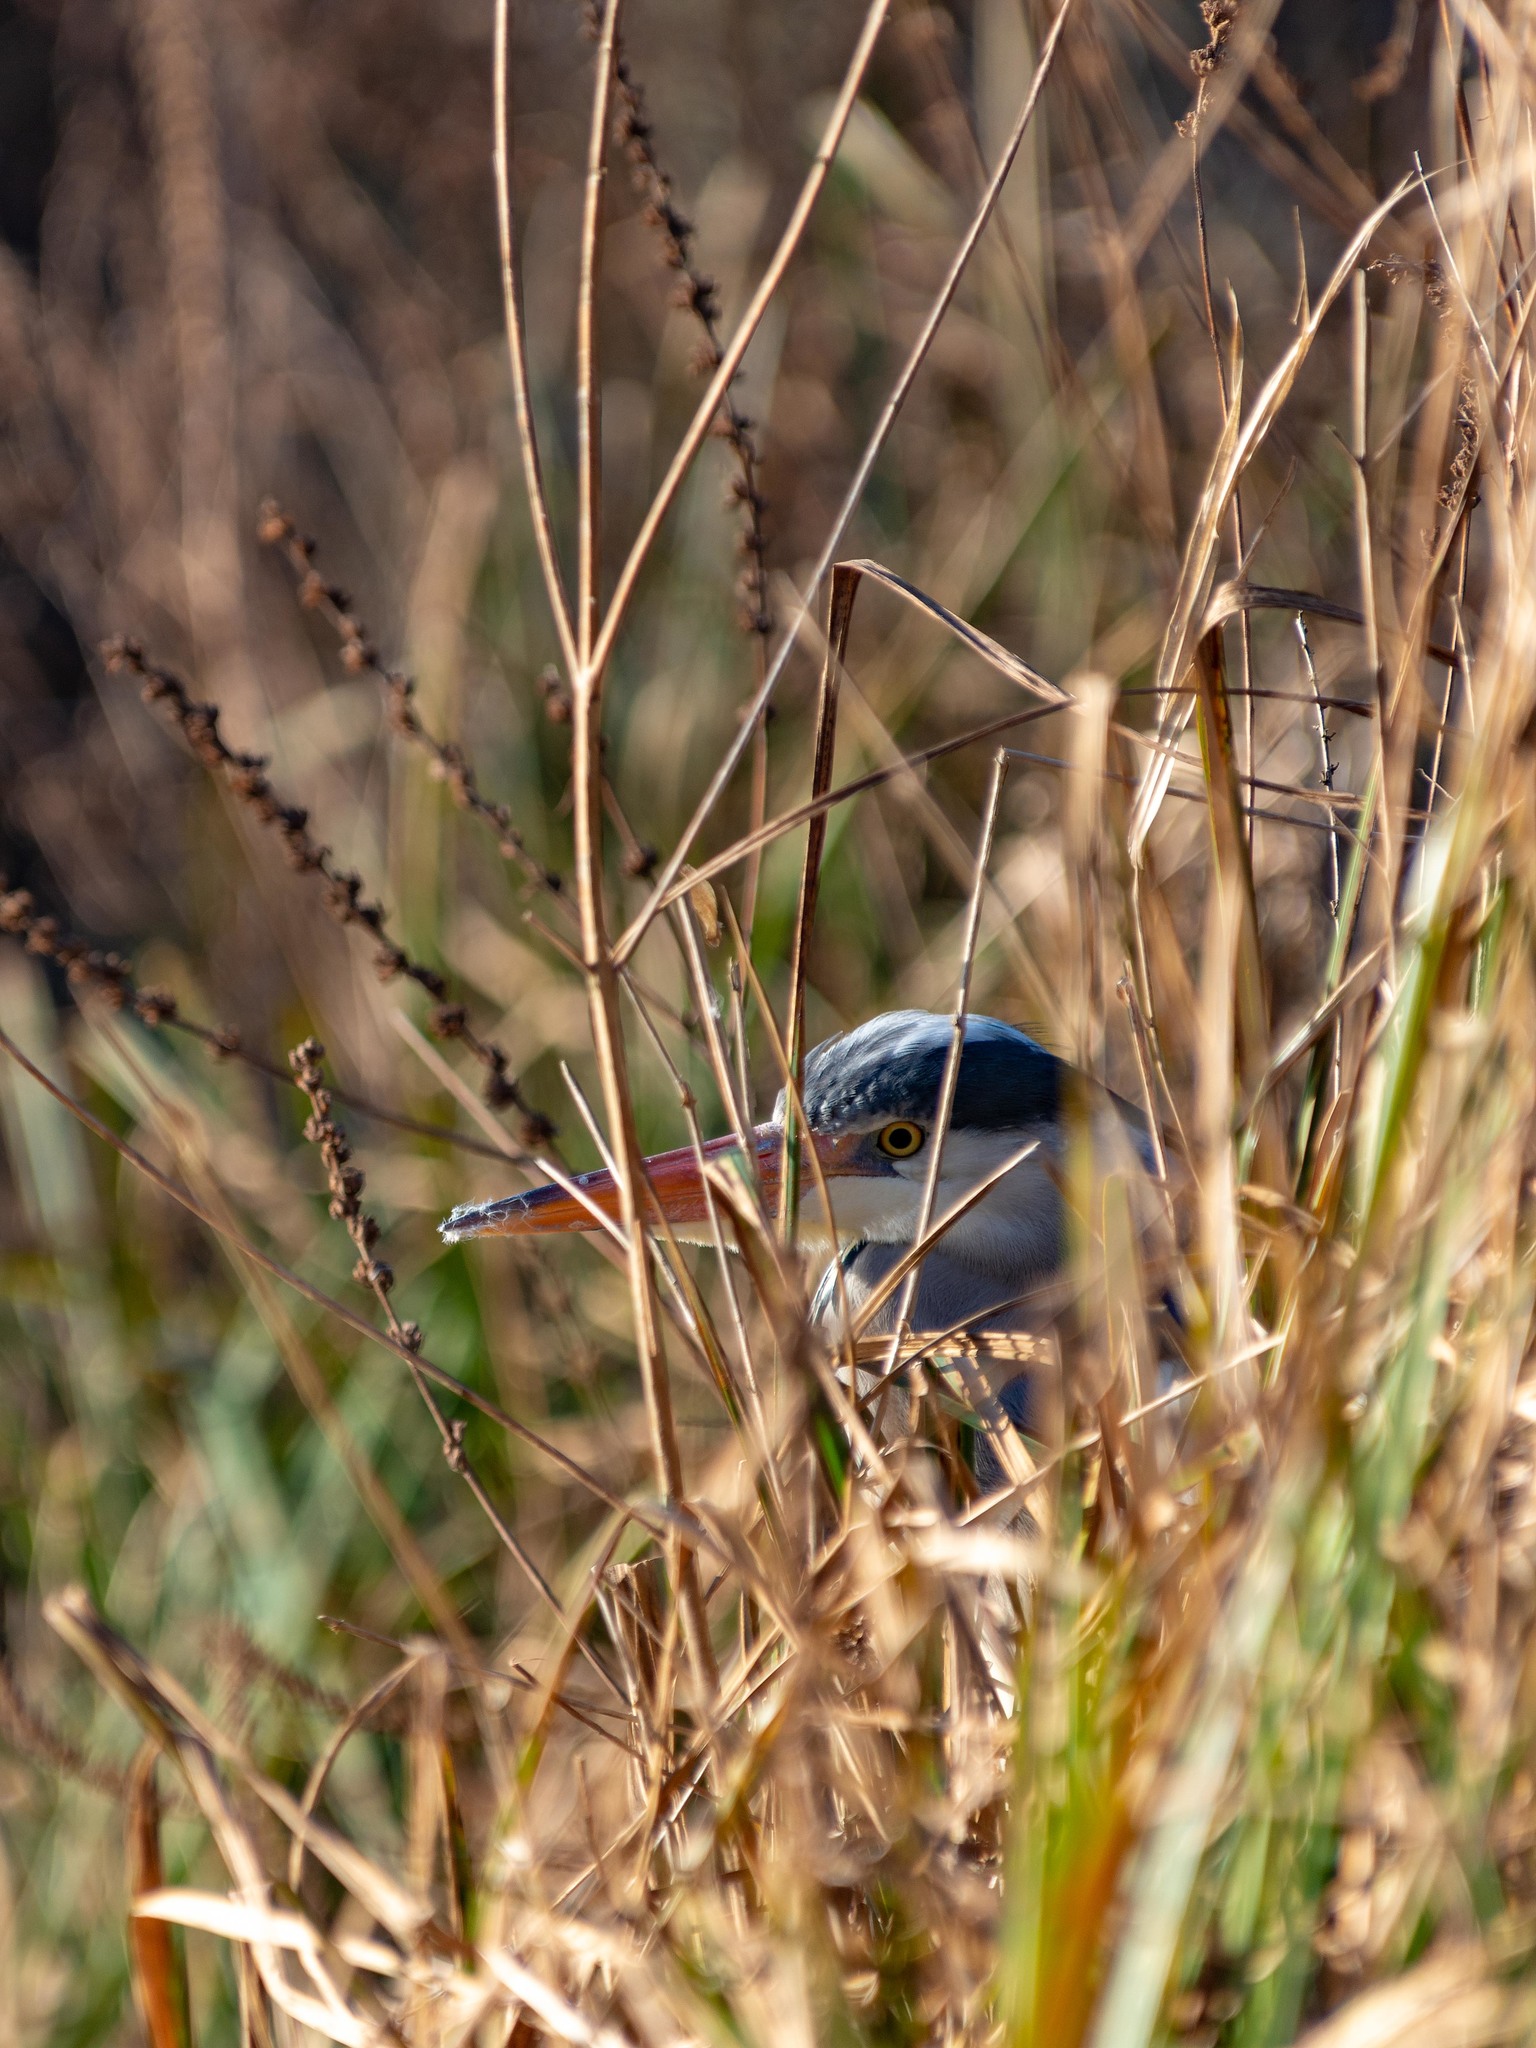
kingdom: Animalia
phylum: Chordata
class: Aves
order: Pelecaniformes
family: Ardeidae
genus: Ardea
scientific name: Ardea cinerea
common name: Grey heron
